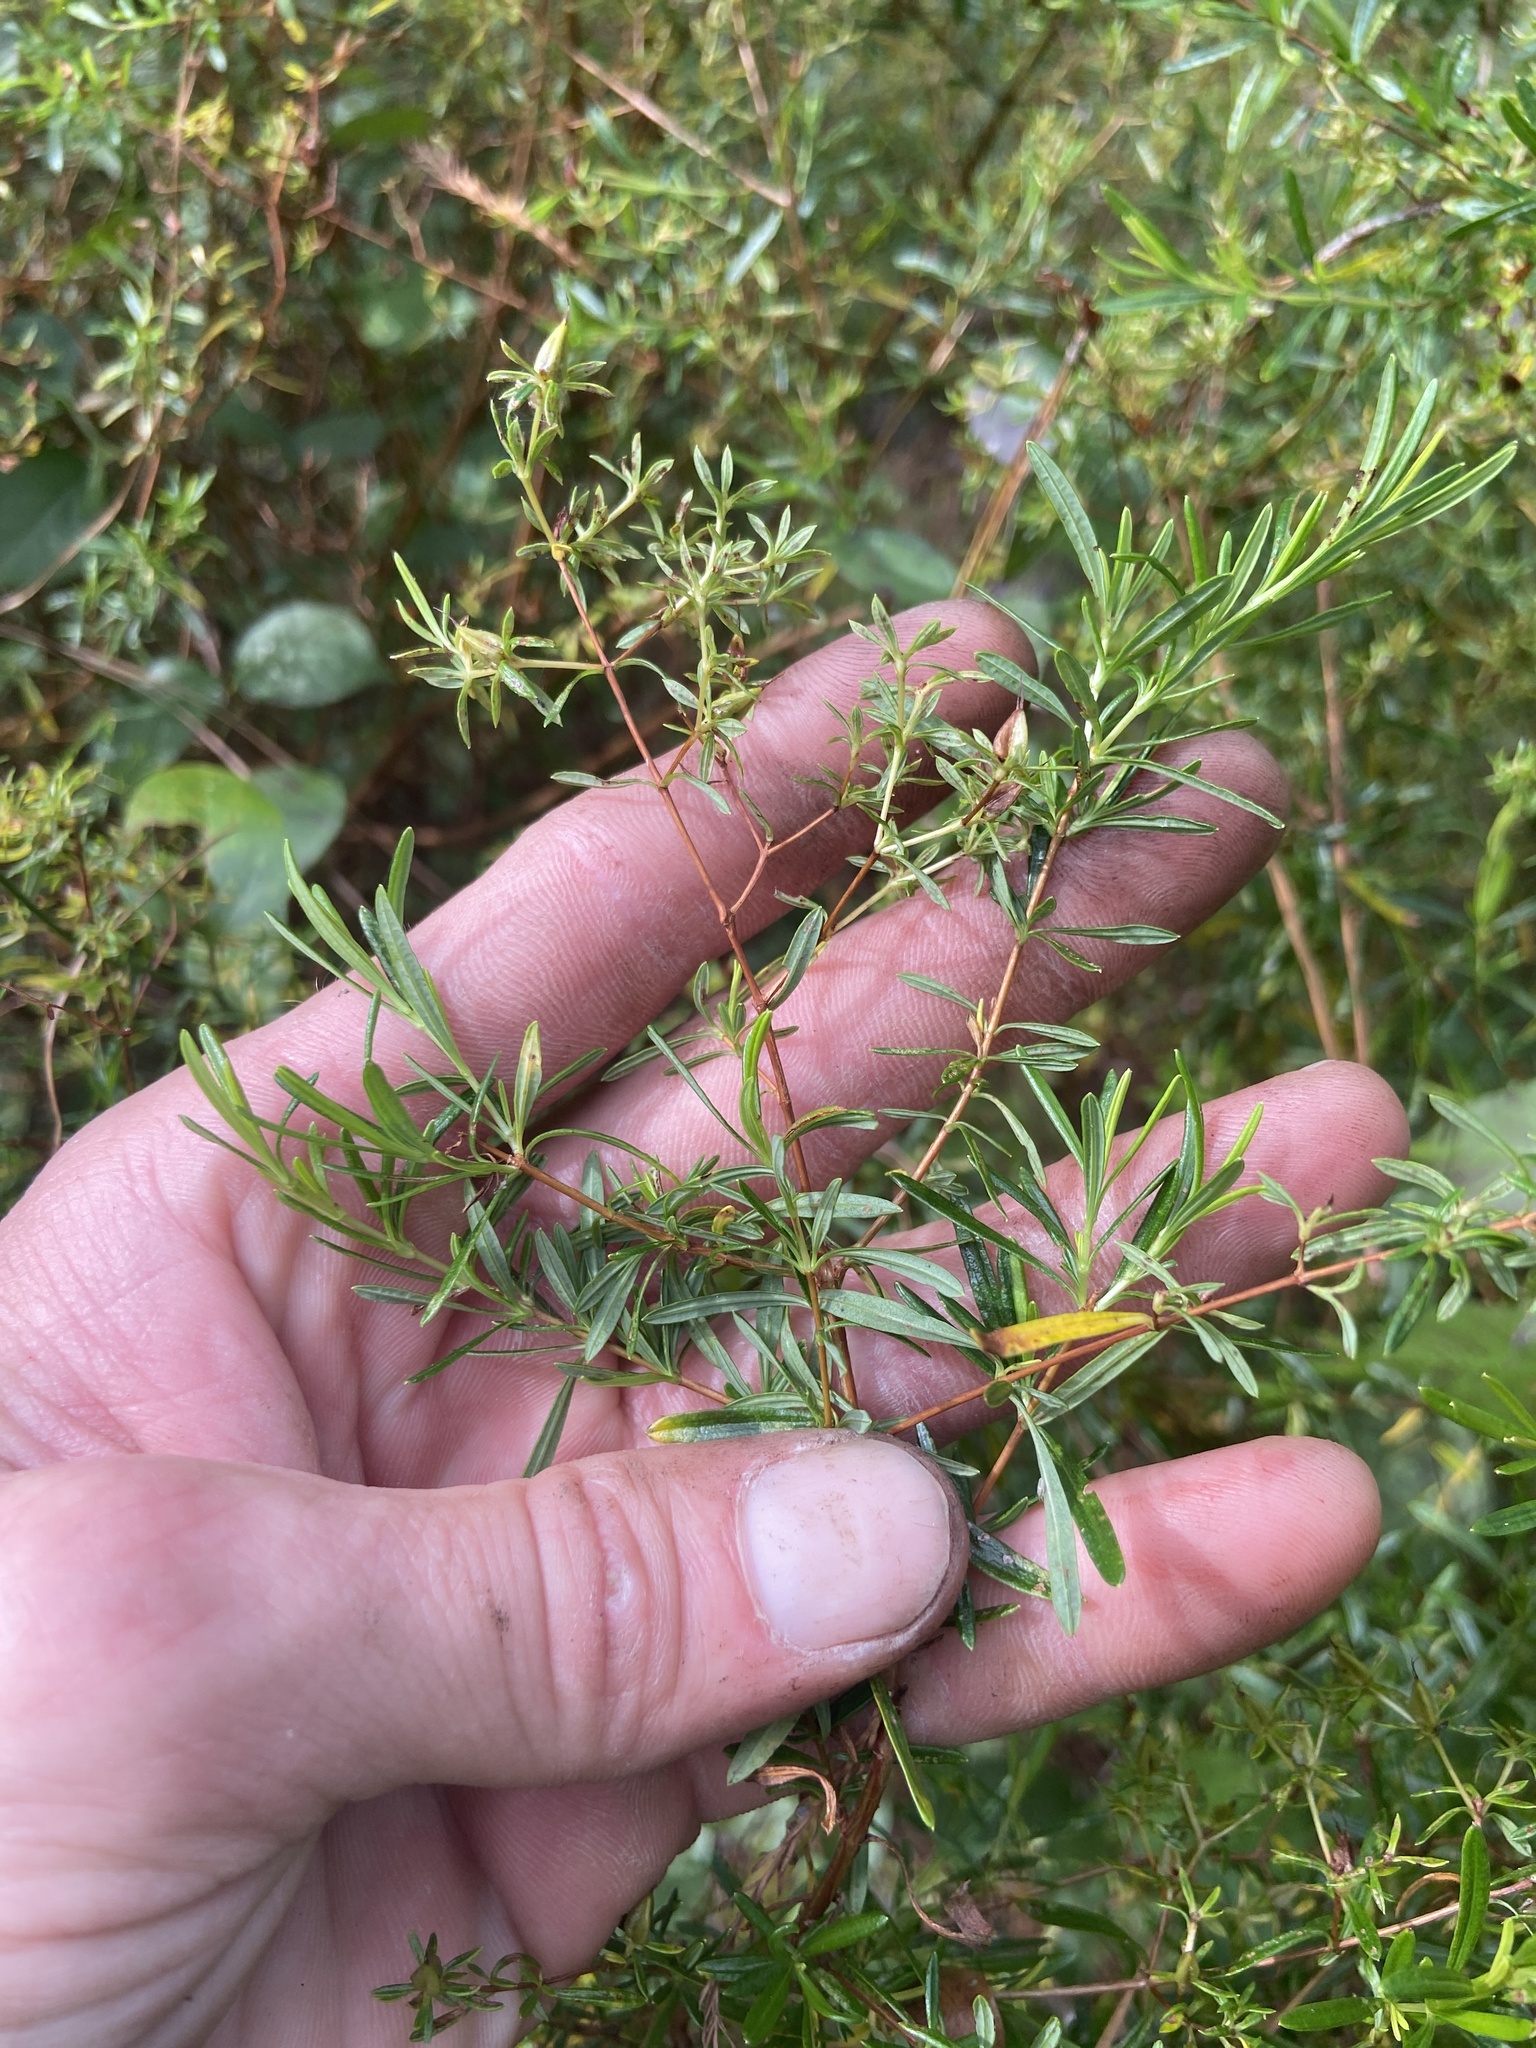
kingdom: Plantae
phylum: Tracheophyta
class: Magnoliopsida
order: Malpighiales
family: Hypericaceae
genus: Hypericum
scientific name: Hypericum densiflorum
